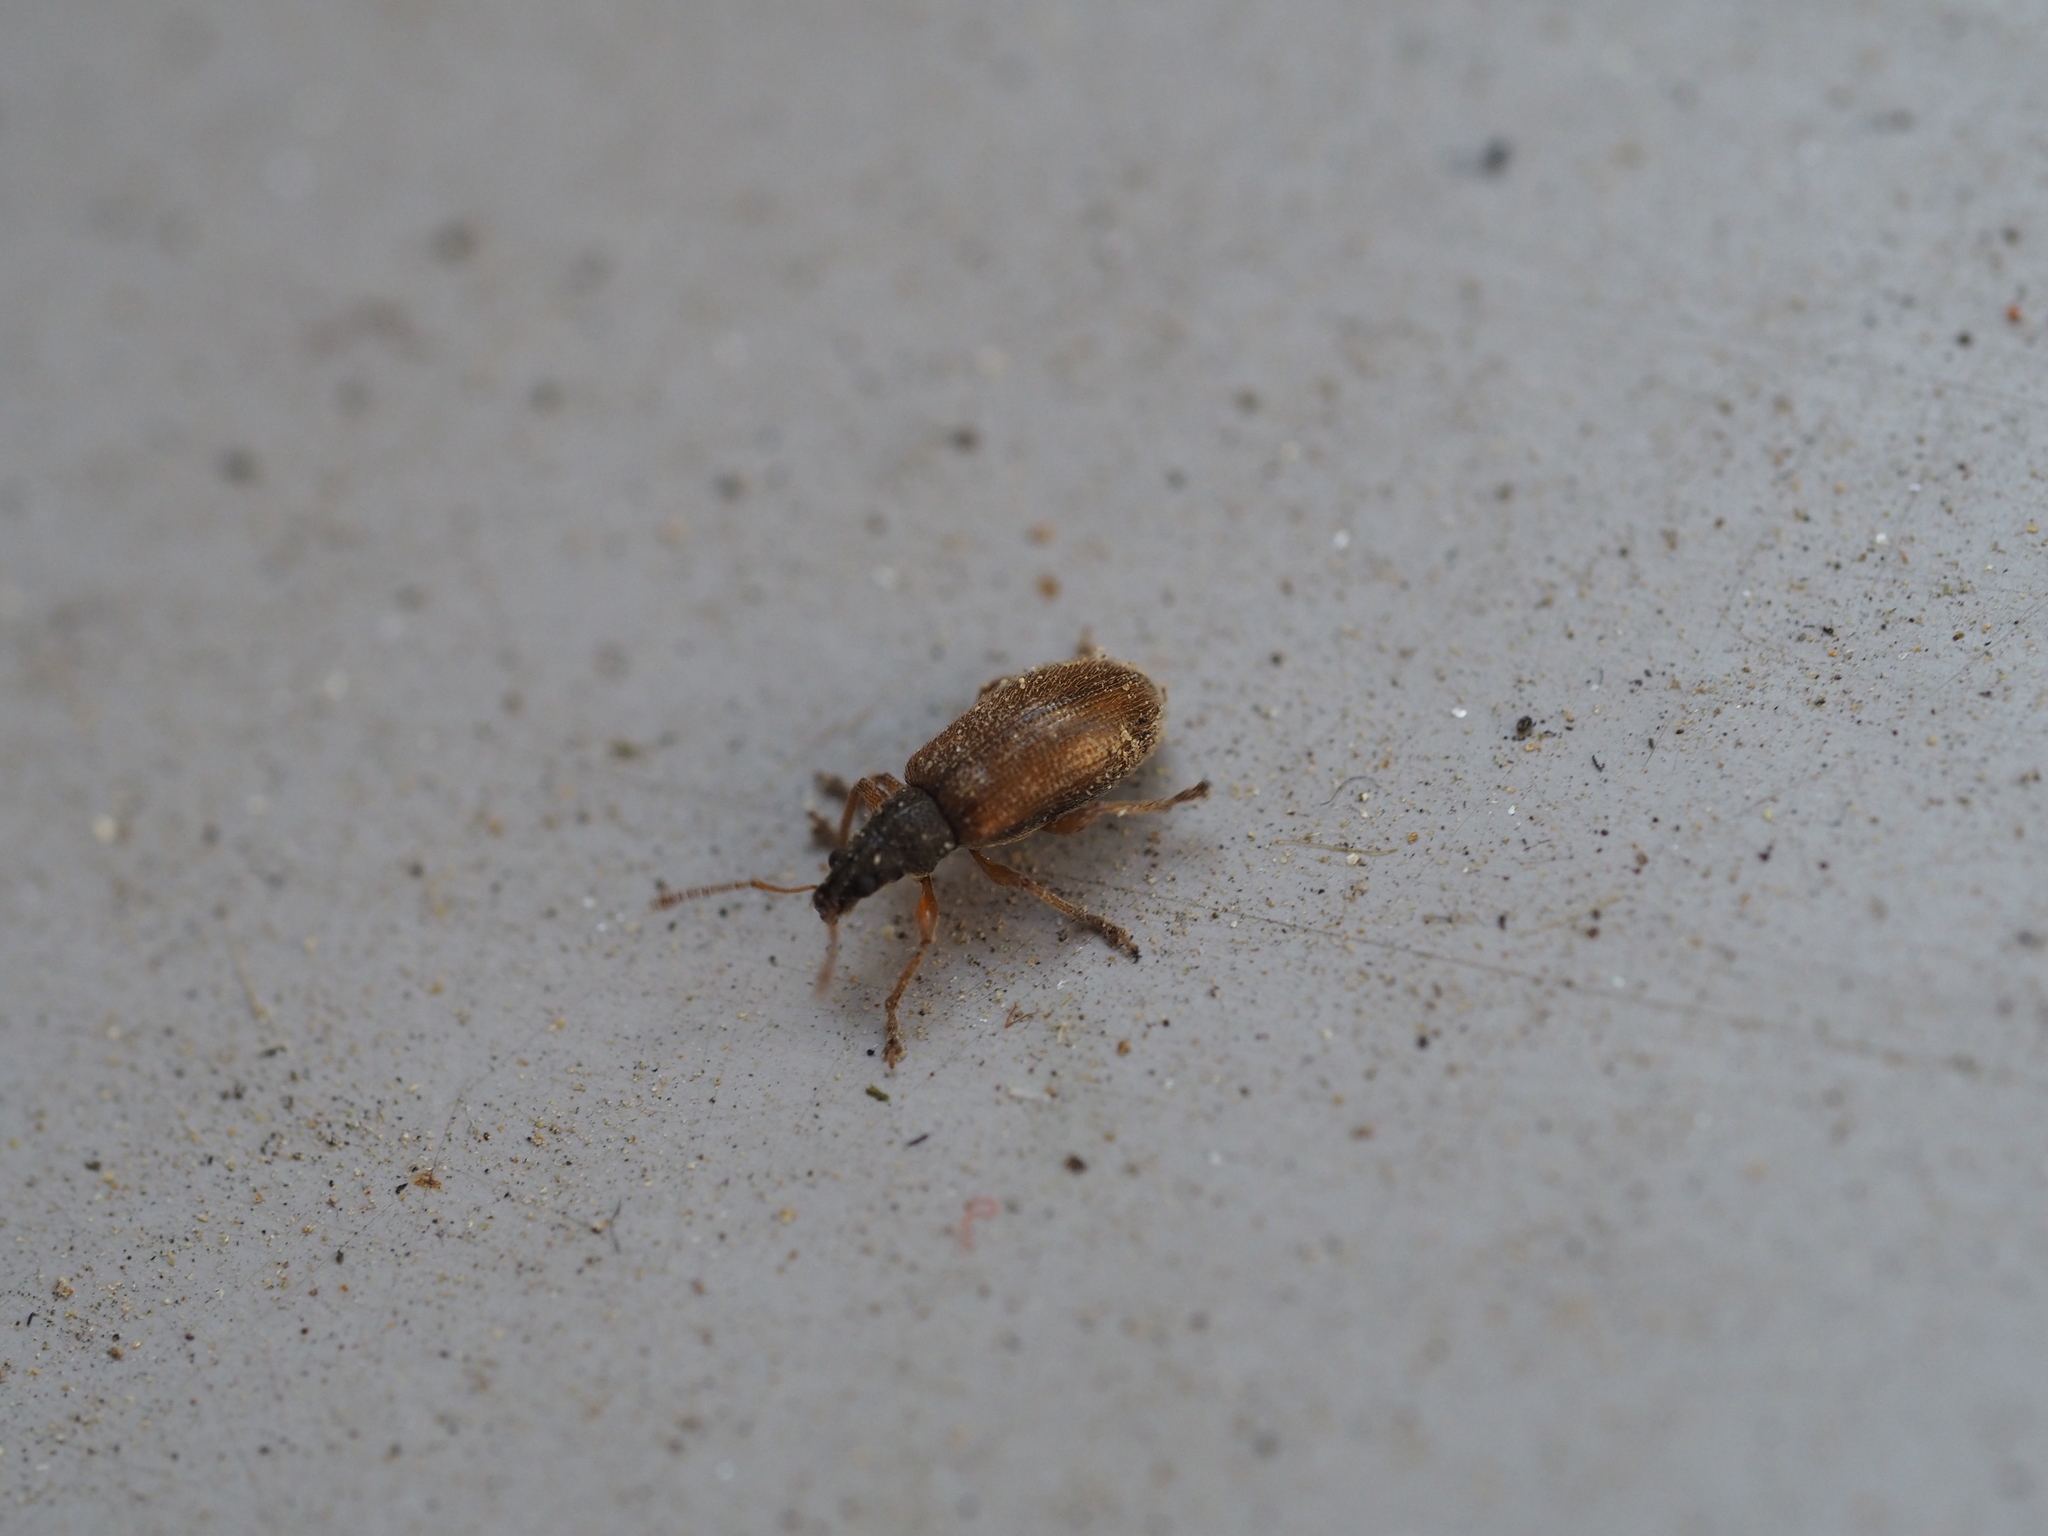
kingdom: Animalia
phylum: Arthropoda
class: Insecta
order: Coleoptera
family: Curculionidae
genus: Phyllobius
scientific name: Phyllobius oblongus
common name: Brown leaf weevil
